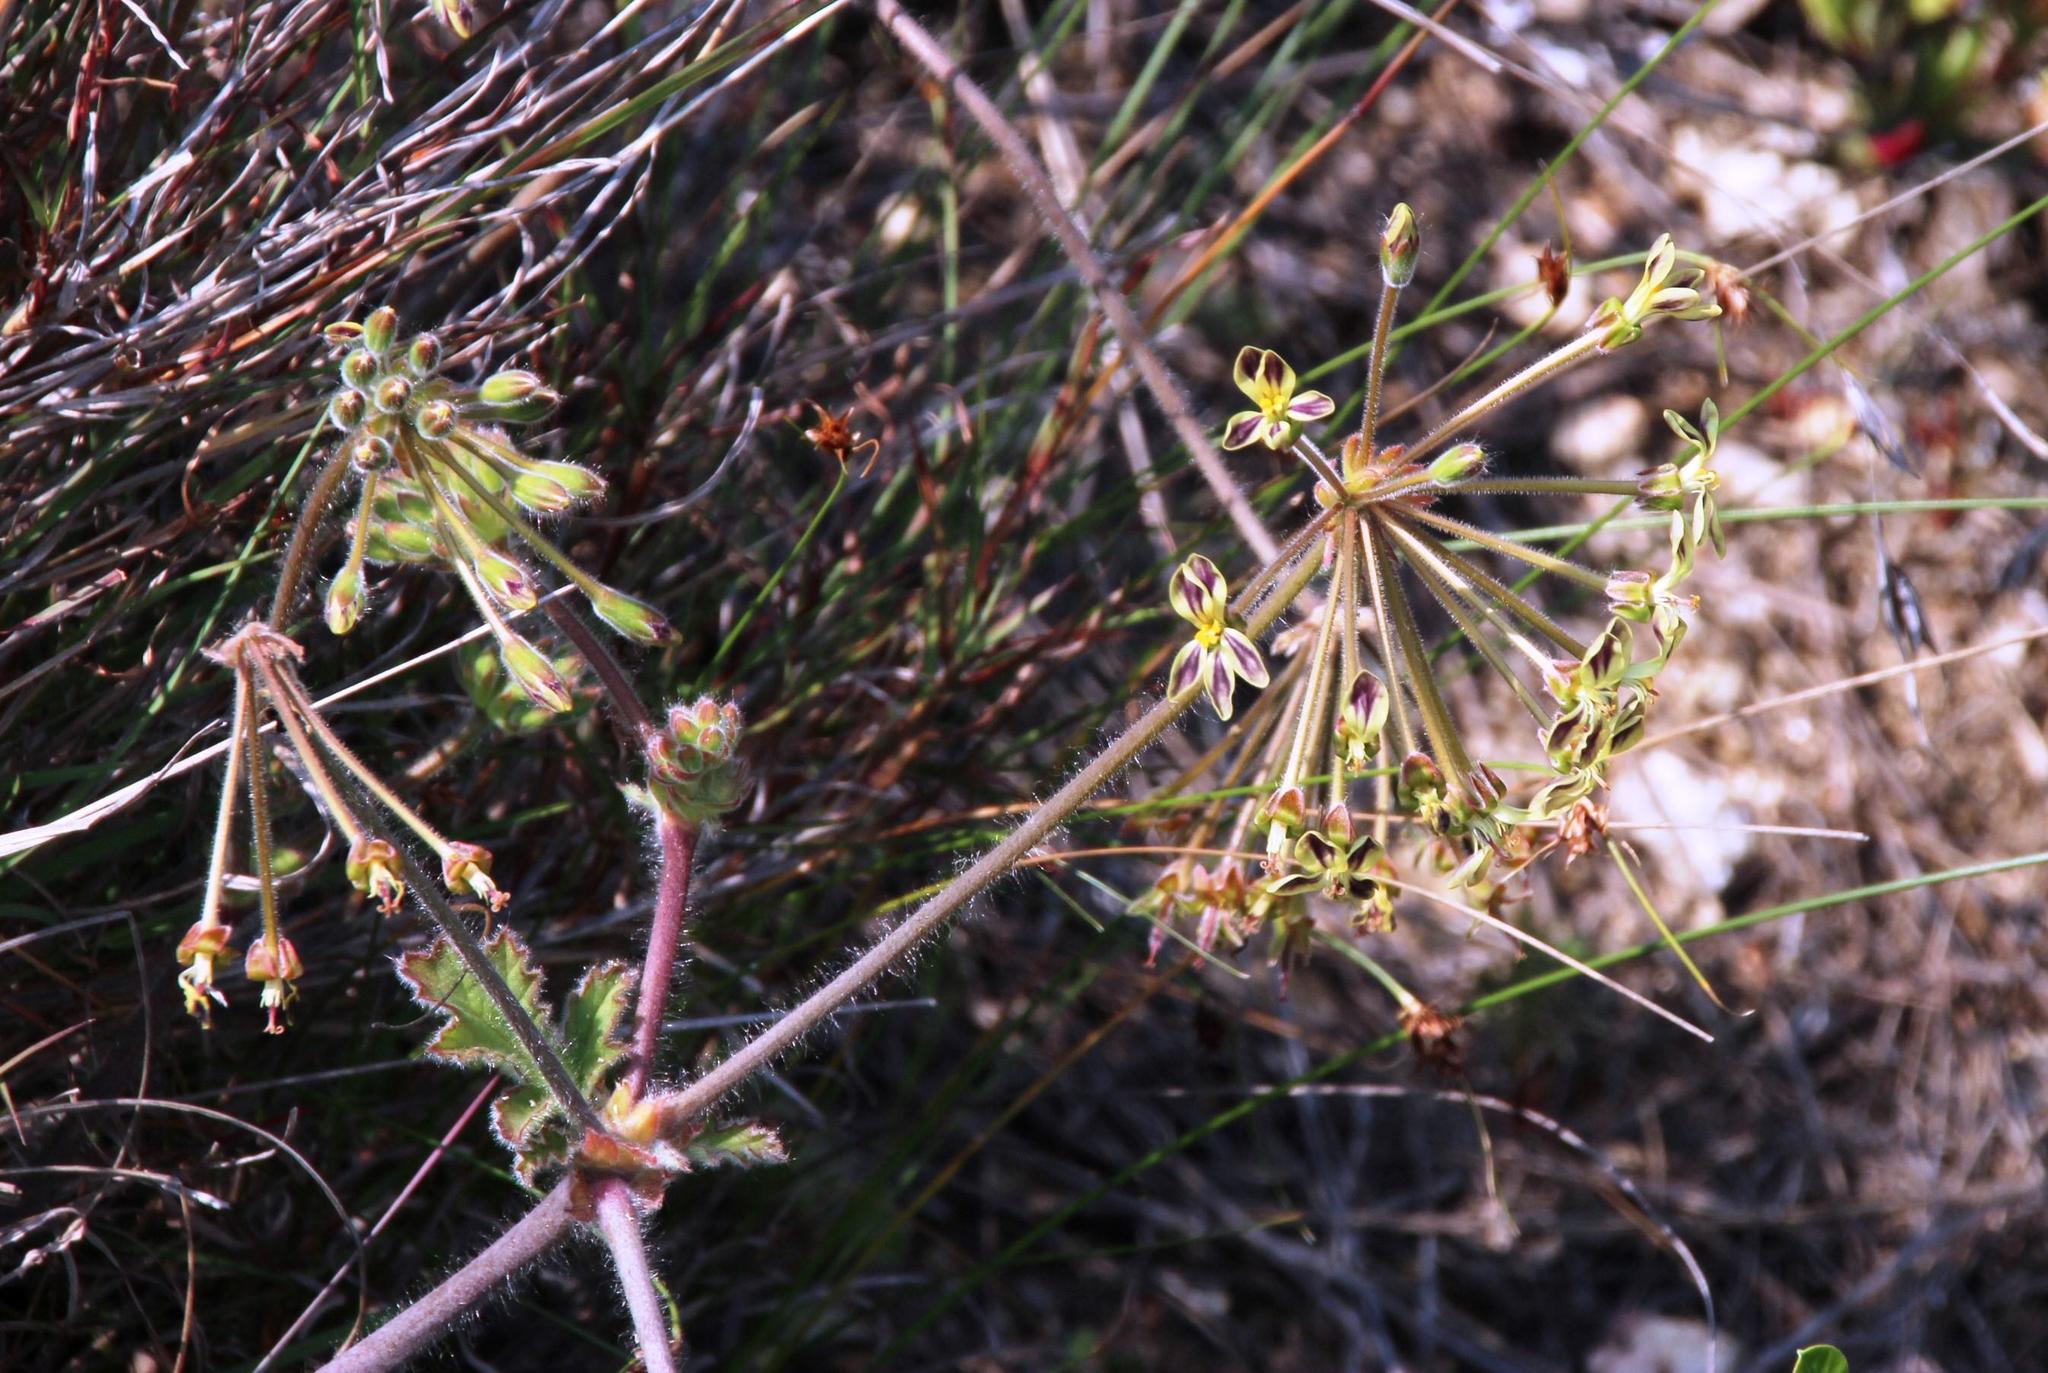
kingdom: Plantae
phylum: Tracheophyta
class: Magnoliopsida
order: Geraniales
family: Geraniaceae
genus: Pelargonium
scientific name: Pelargonium lobatum
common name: Vine-leaf pelargonium
